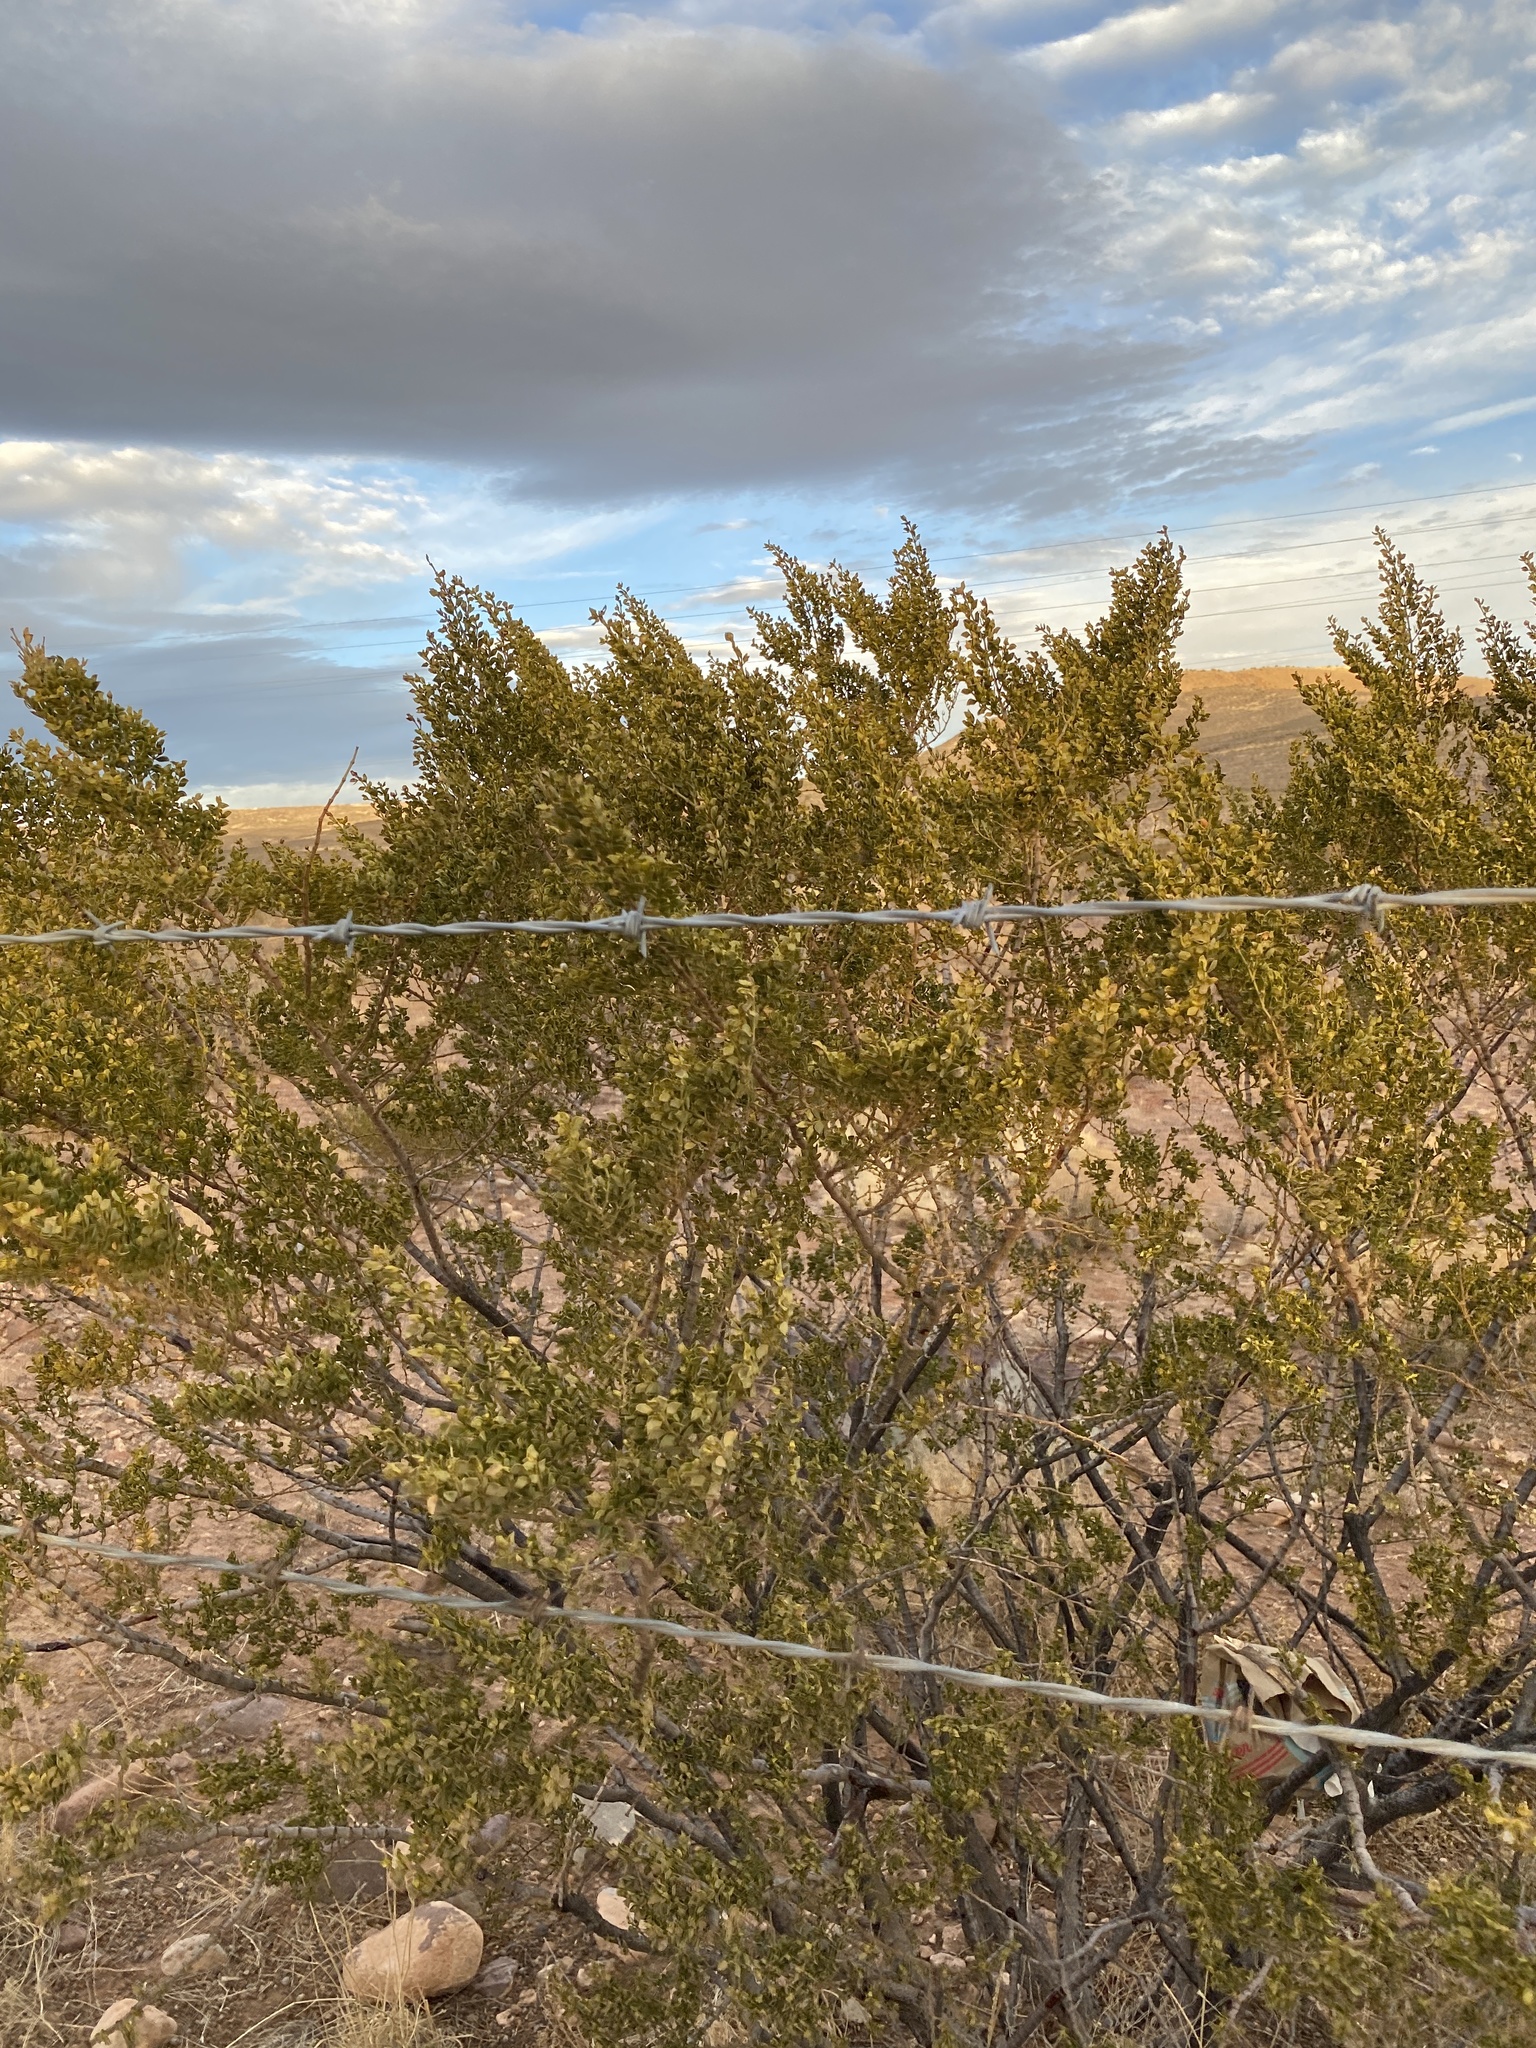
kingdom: Plantae
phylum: Tracheophyta
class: Magnoliopsida
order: Zygophyllales
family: Zygophyllaceae
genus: Larrea
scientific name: Larrea tridentata
